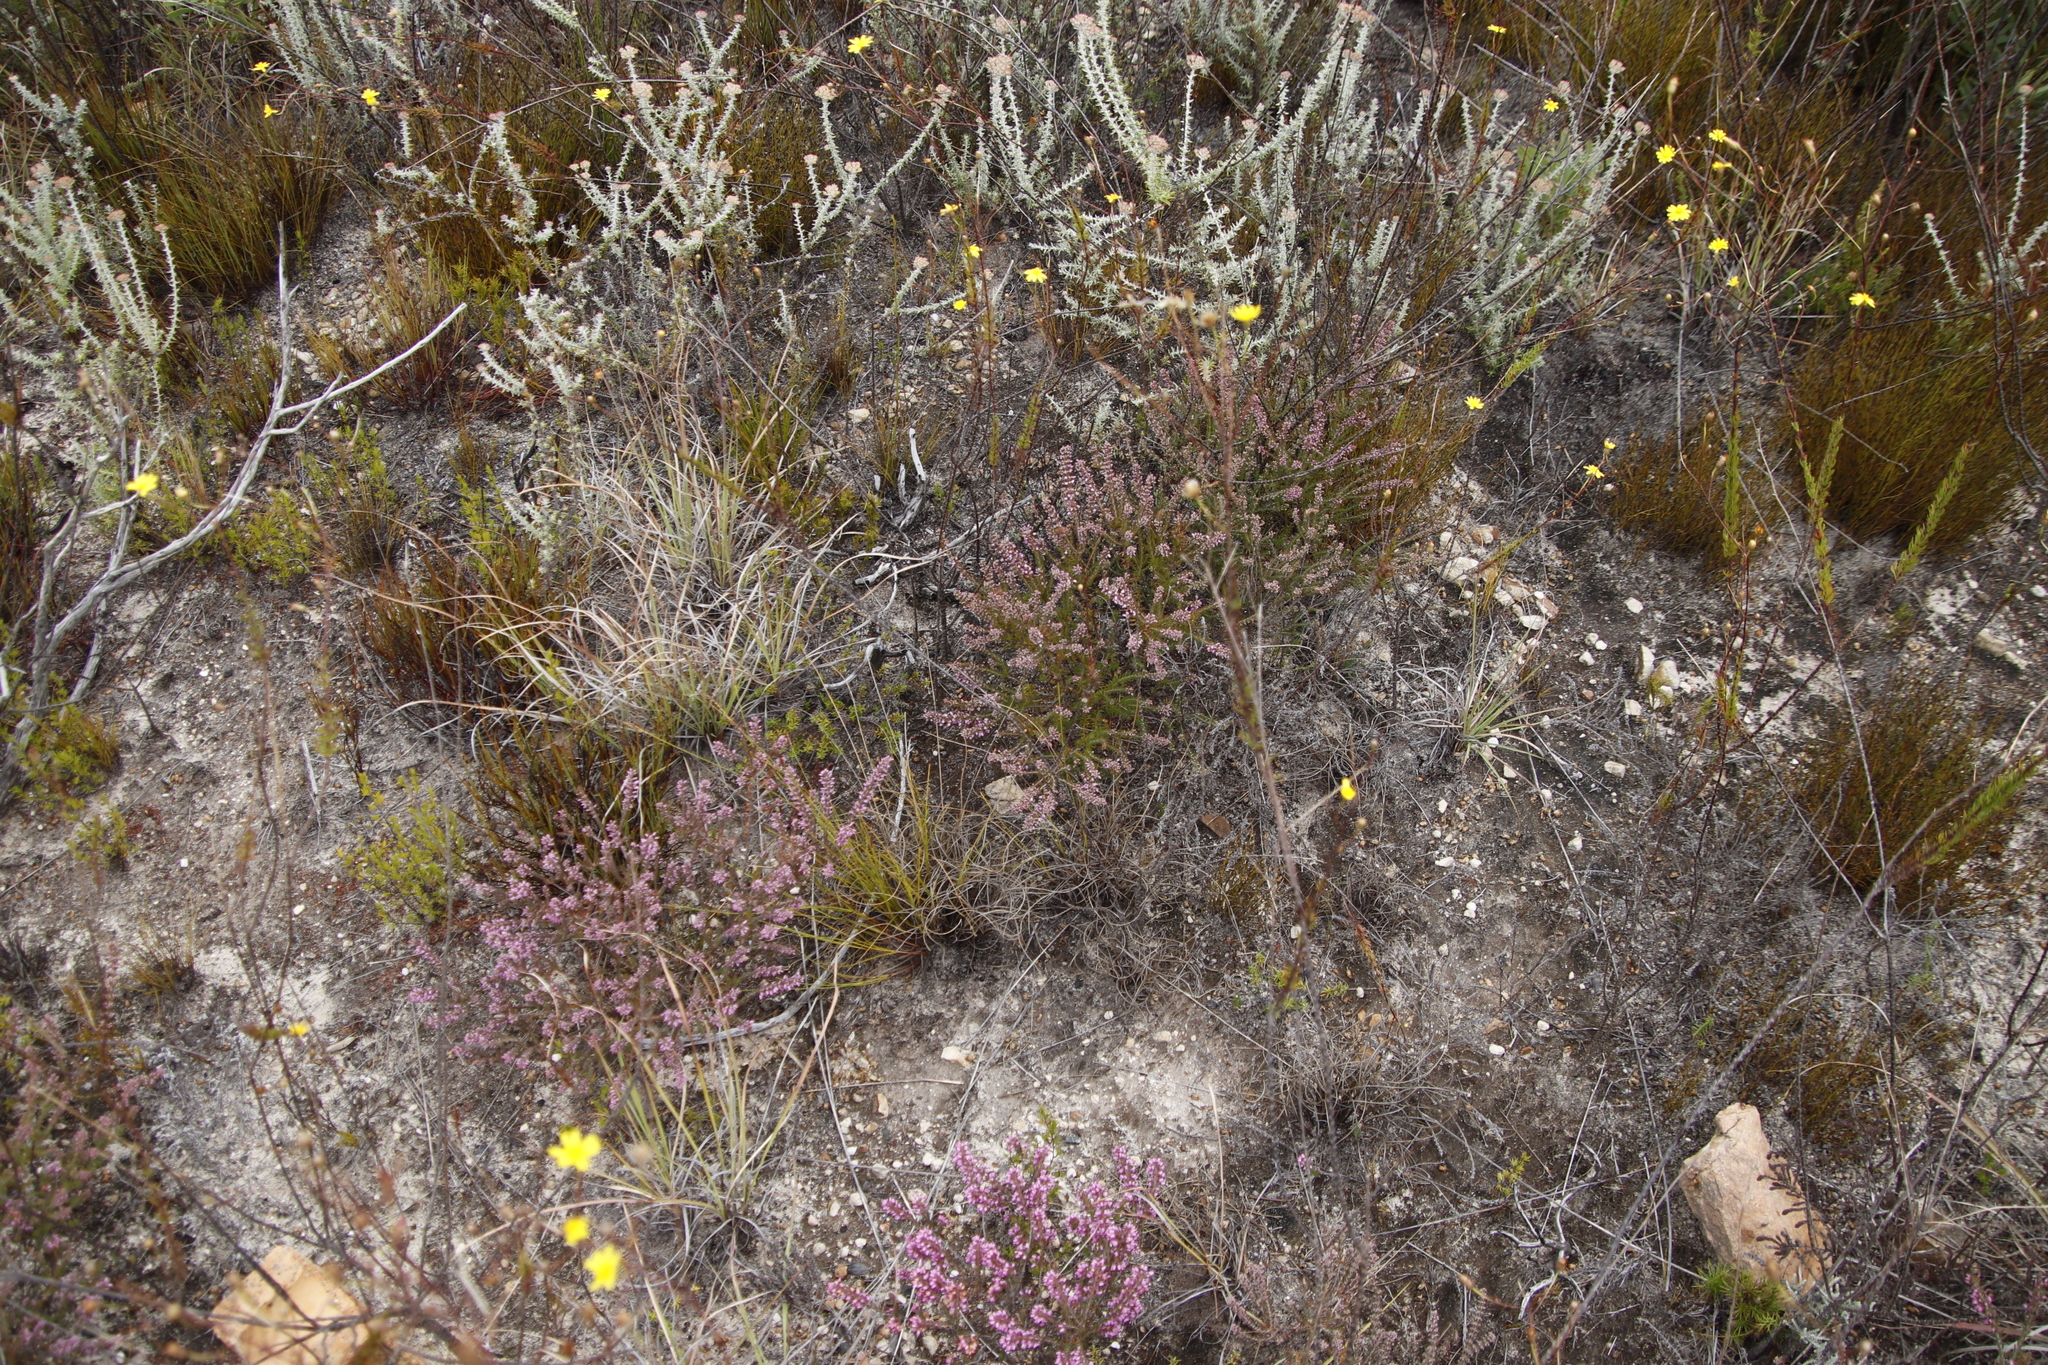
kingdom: Plantae
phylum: Tracheophyta
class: Magnoliopsida
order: Asterales
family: Asteraceae
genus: Metalasia
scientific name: Metalasia densa
